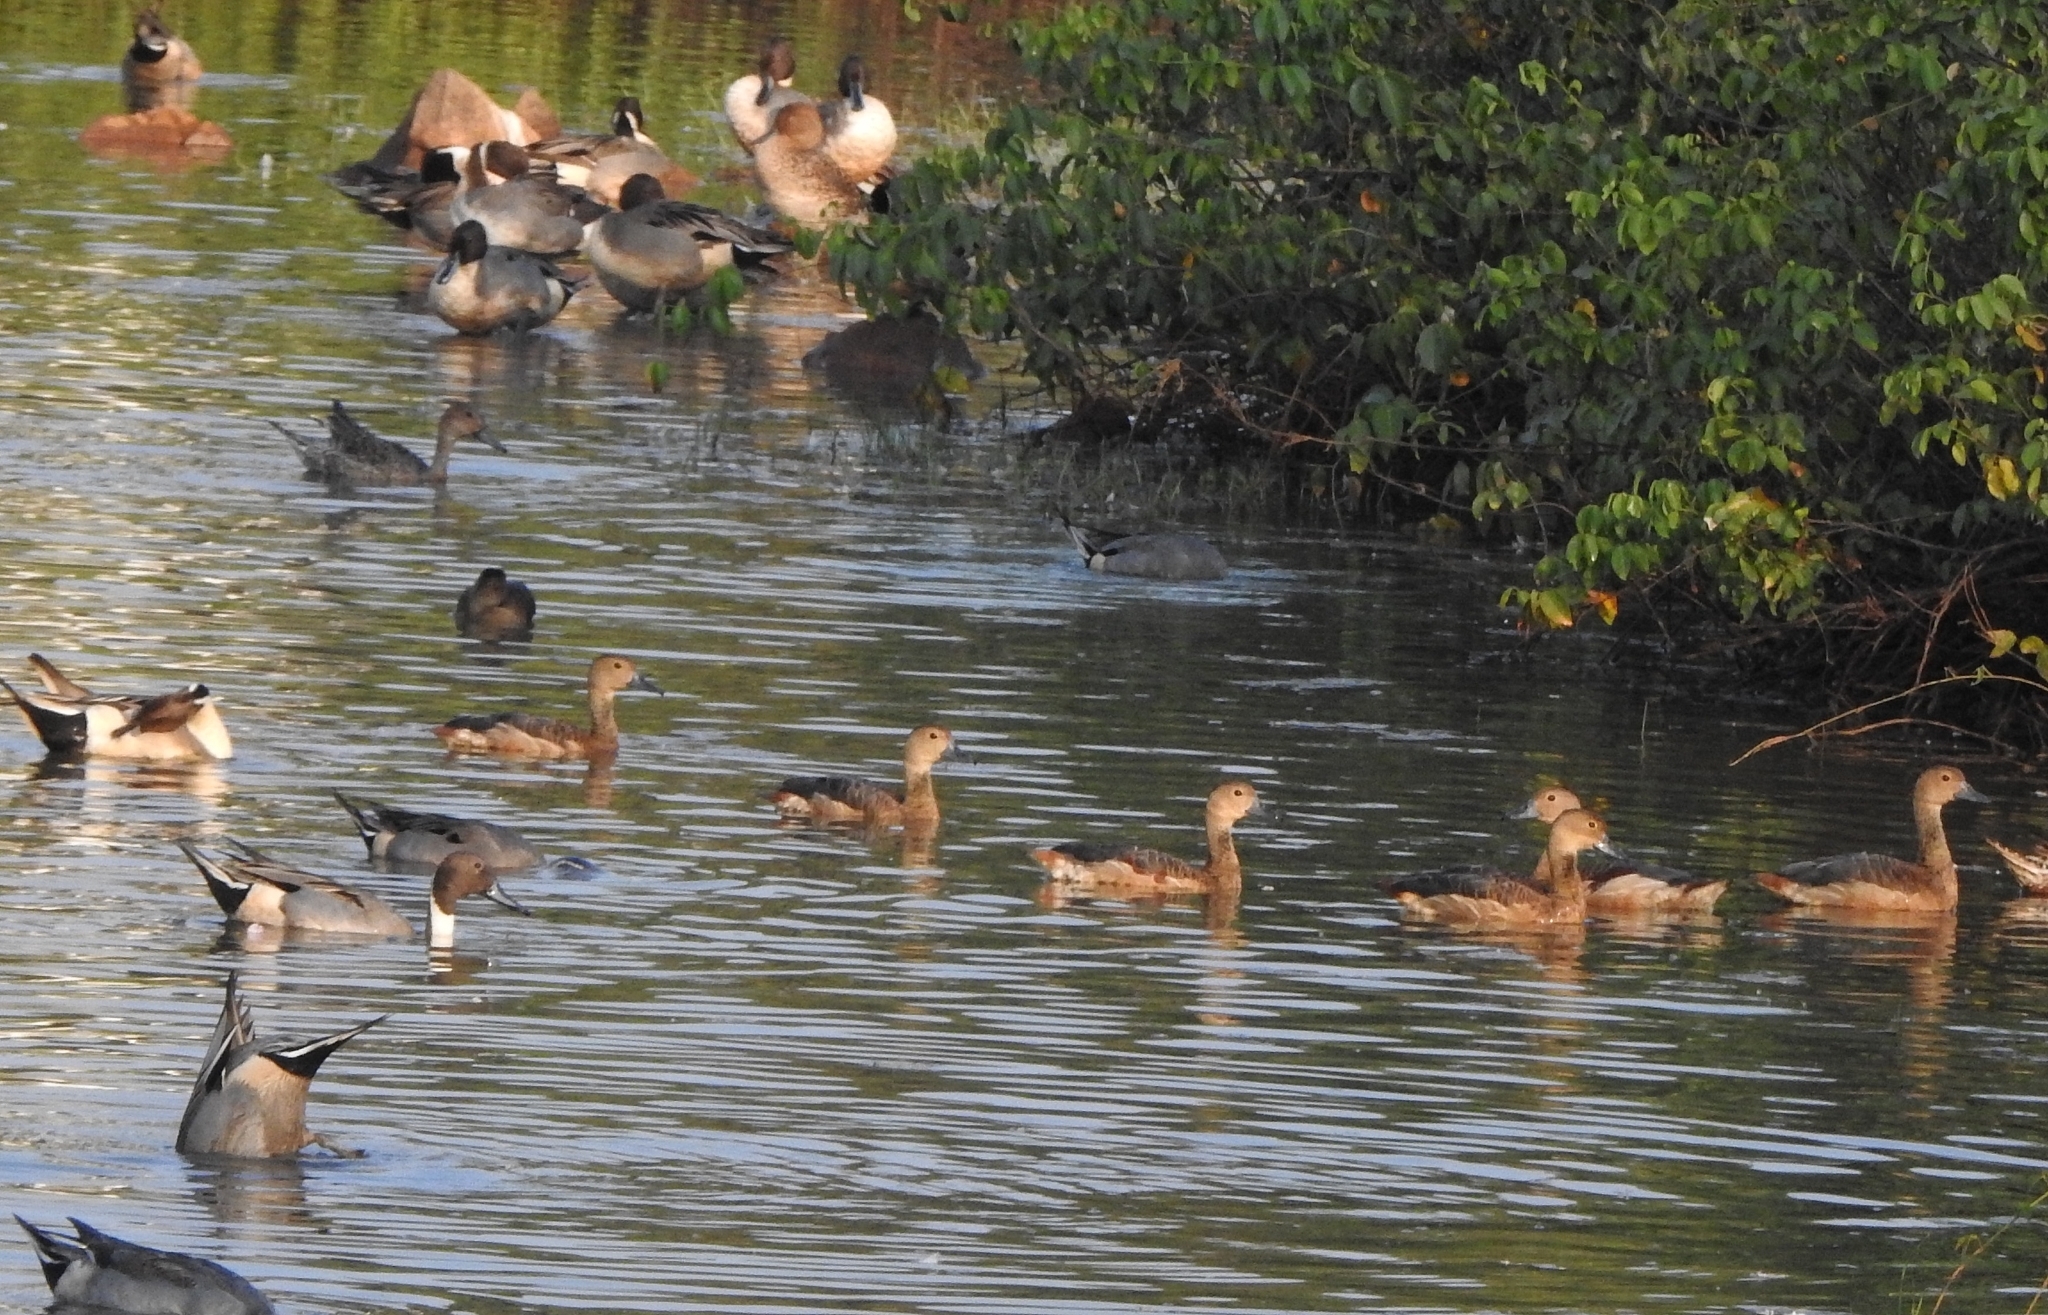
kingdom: Animalia
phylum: Chordata
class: Aves
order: Anseriformes
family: Anatidae
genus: Dendrocygna
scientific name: Dendrocygna javanica
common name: Lesser whistling-duck
